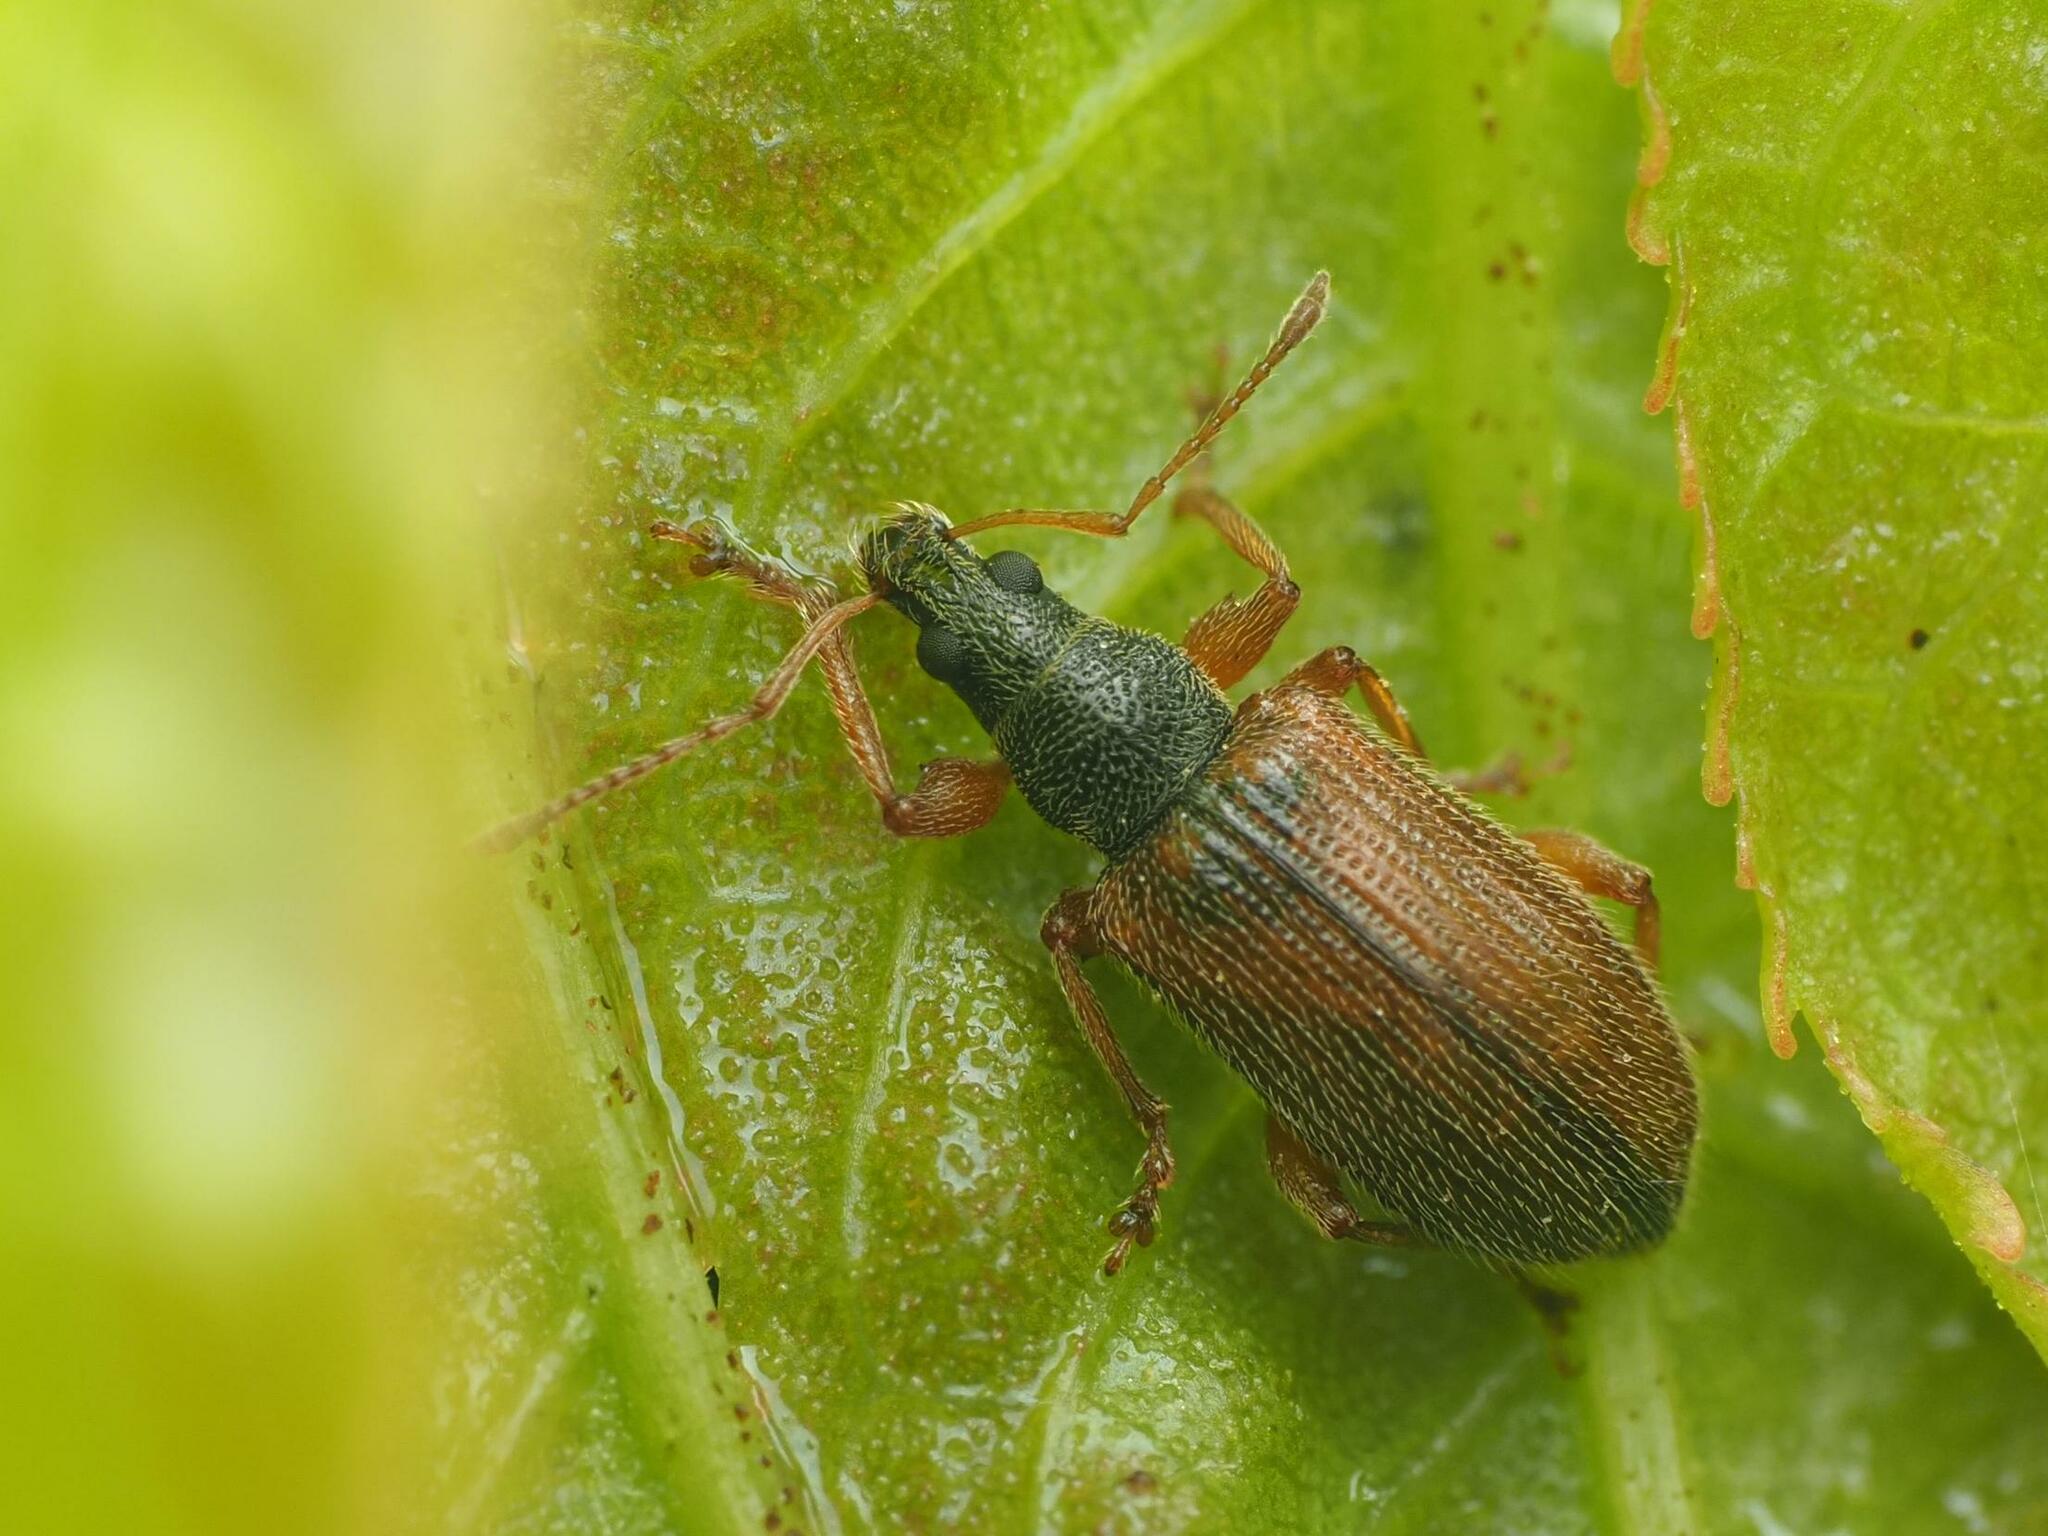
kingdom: Animalia
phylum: Arthropoda
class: Insecta
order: Coleoptera
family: Curculionidae
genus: Phyllobius
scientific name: Phyllobius oblongus
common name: Brown leaf weevil
